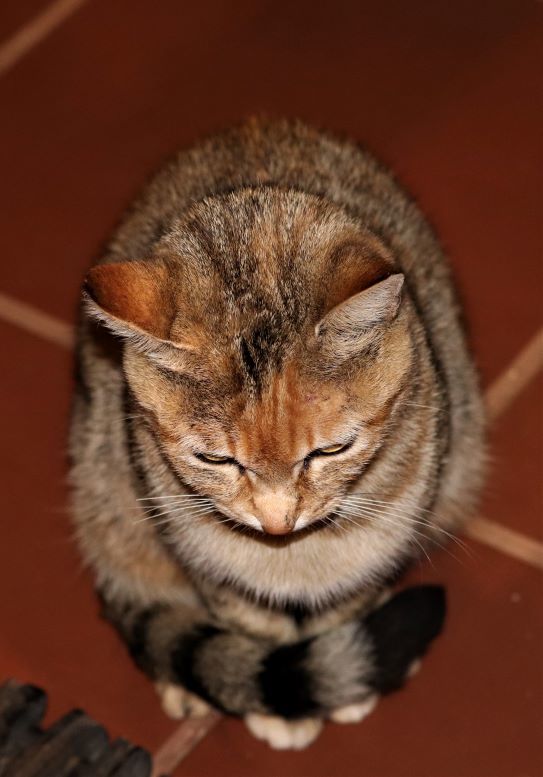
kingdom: Animalia
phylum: Chordata
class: Mammalia
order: Carnivora
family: Felidae
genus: Felis
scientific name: Felis catus
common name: Domestic cat
